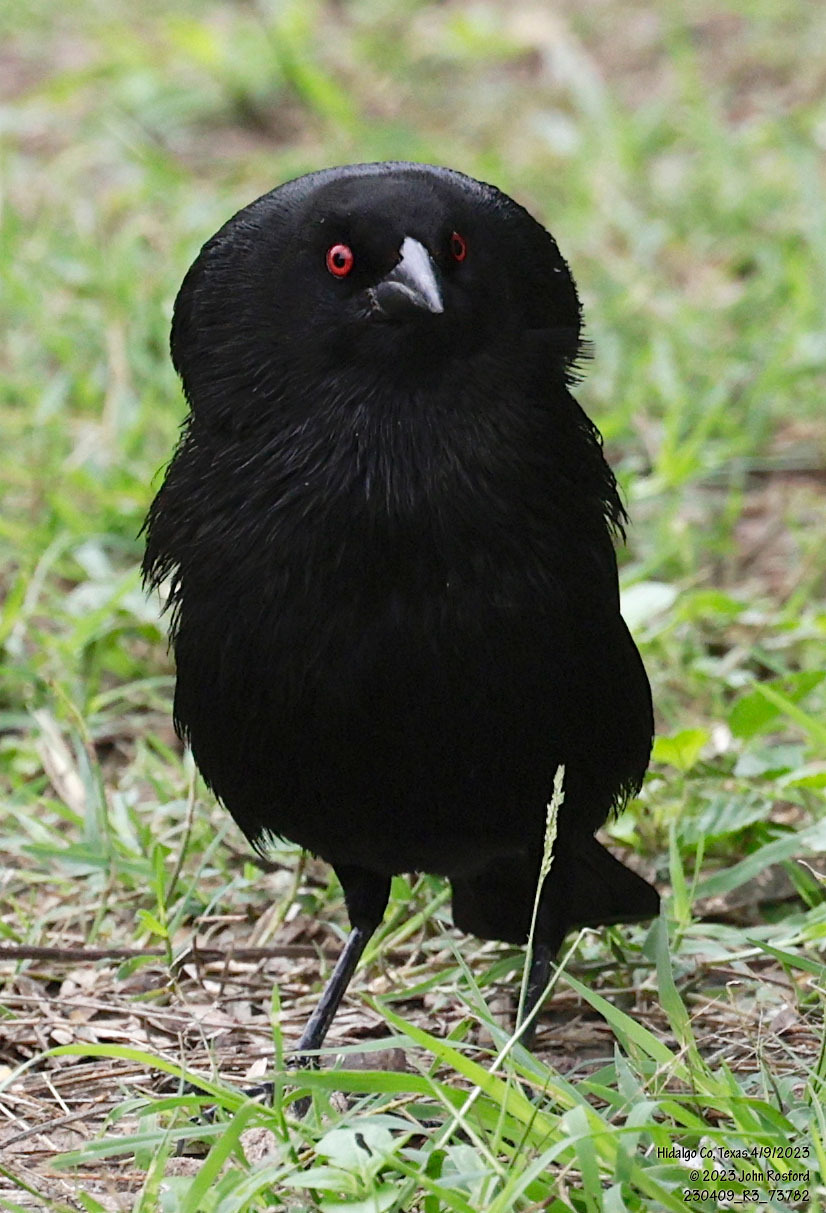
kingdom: Animalia
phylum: Chordata
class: Aves
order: Passeriformes
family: Icteridae
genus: Molothrus
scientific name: Molothrus aeneus
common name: Bronzed cowbird
